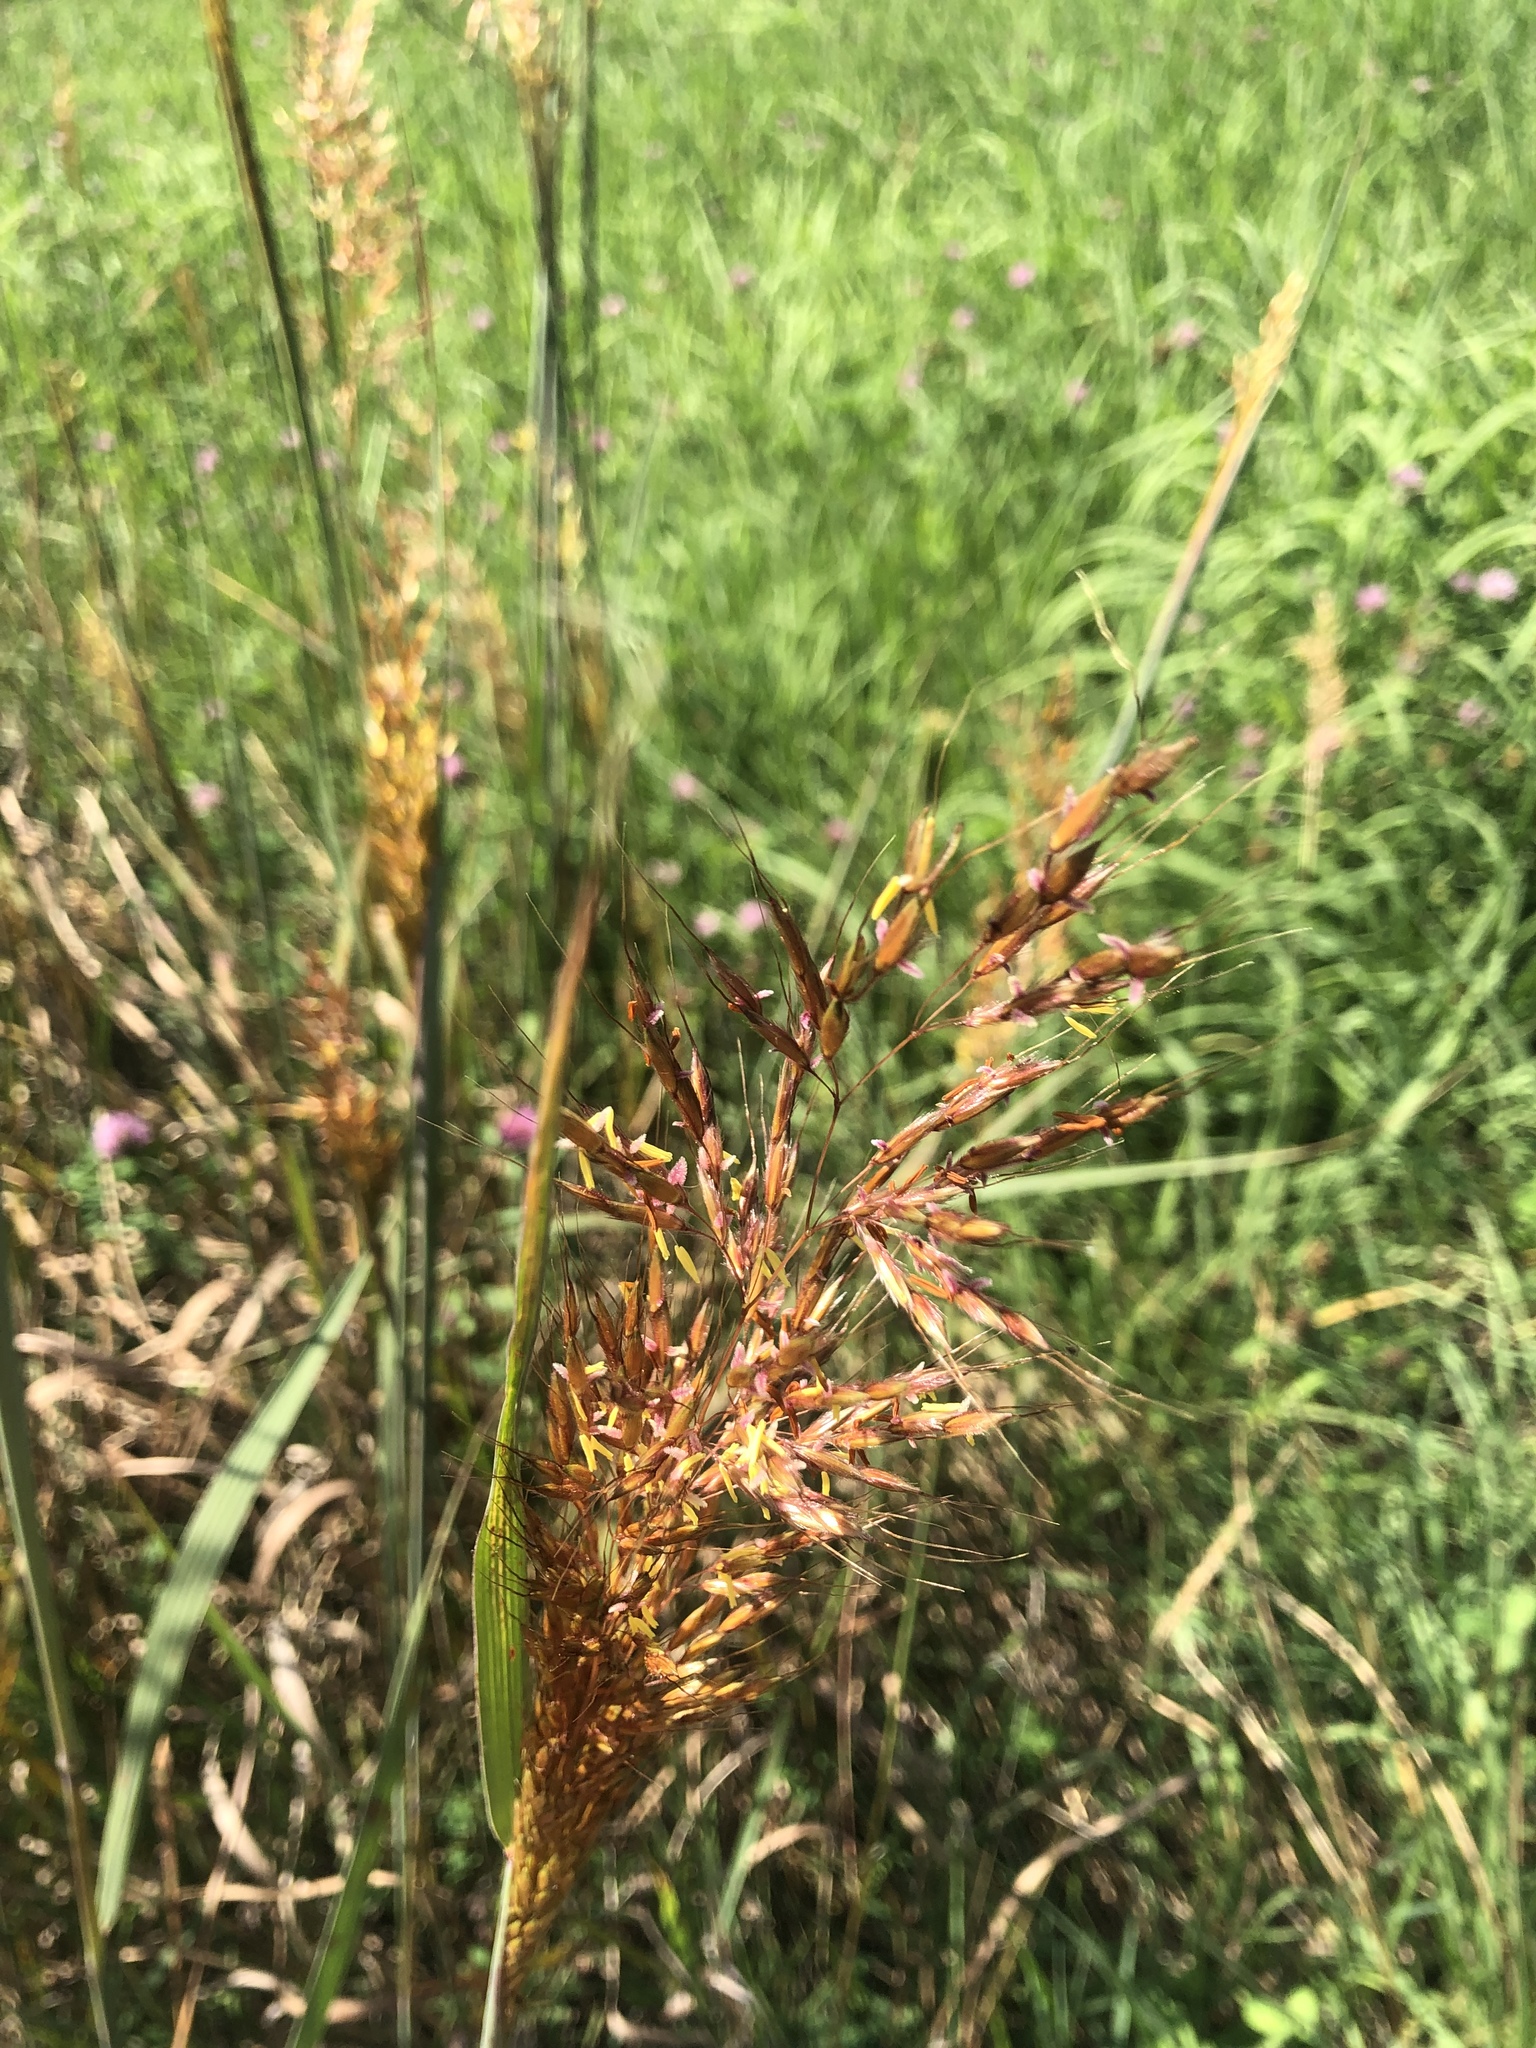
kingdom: Plantae
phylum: Tracheophyta
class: Liliopsida
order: Poales
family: Poaceae
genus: Sorghastrum
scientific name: Sorghastrum nutans
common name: Indian grass
